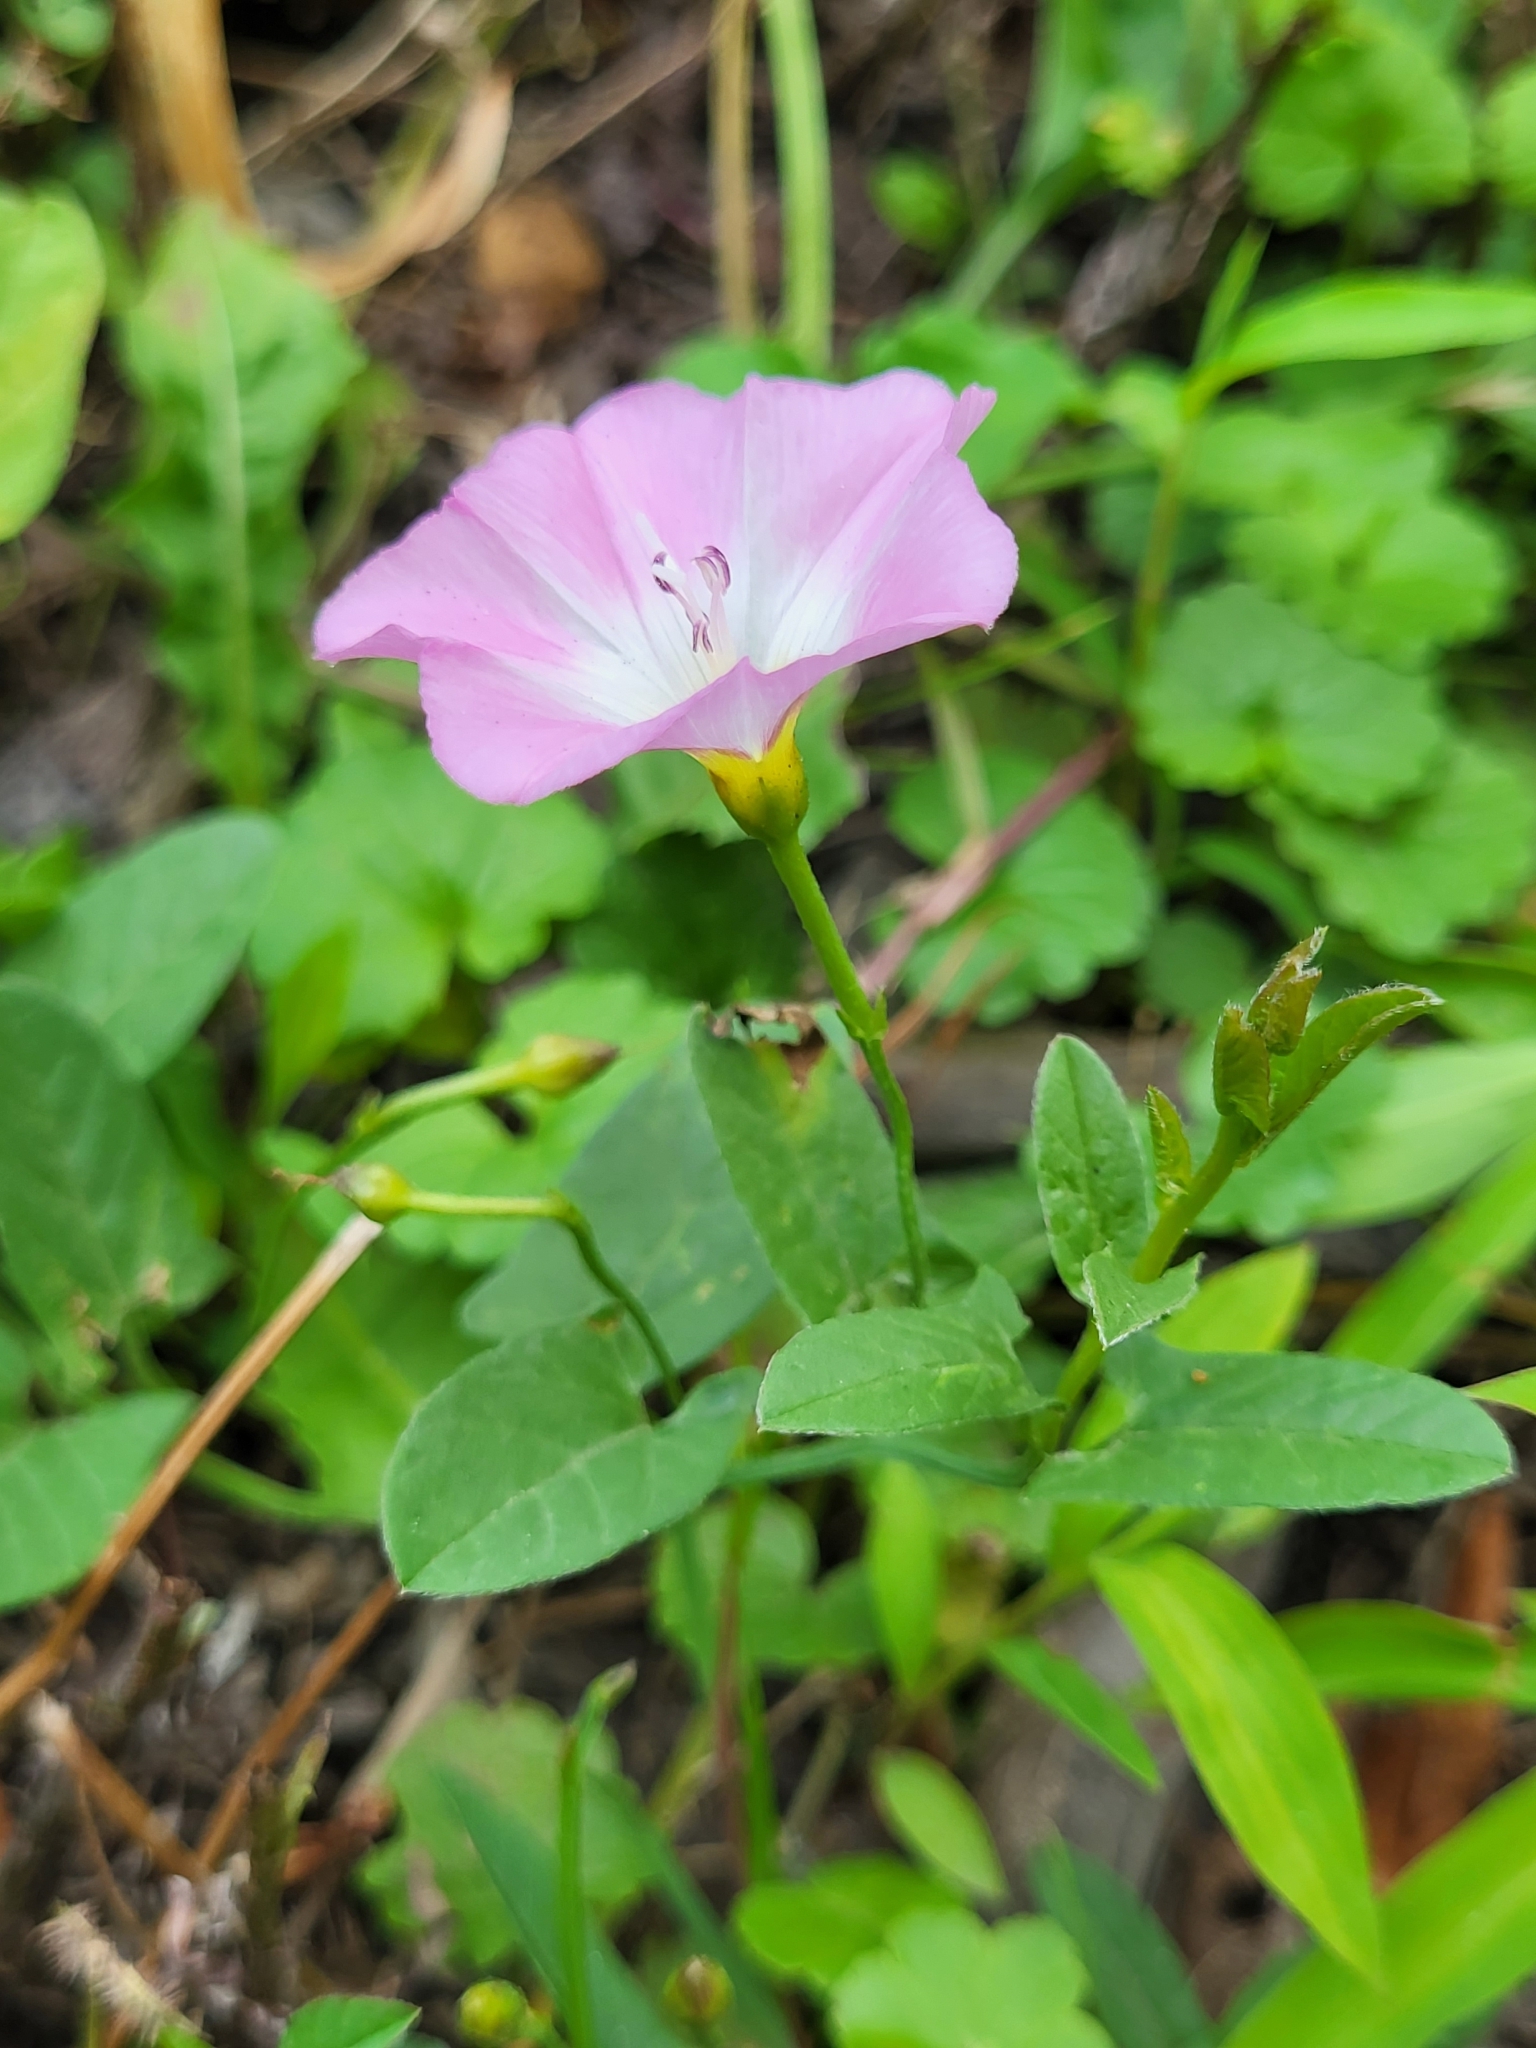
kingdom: Plantae
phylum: Tracheophyta
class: Magnoliopsida
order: Solanales
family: Convolvulaceae
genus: Convolvulus
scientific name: Convolvulus arvensis
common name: Field bindweed
